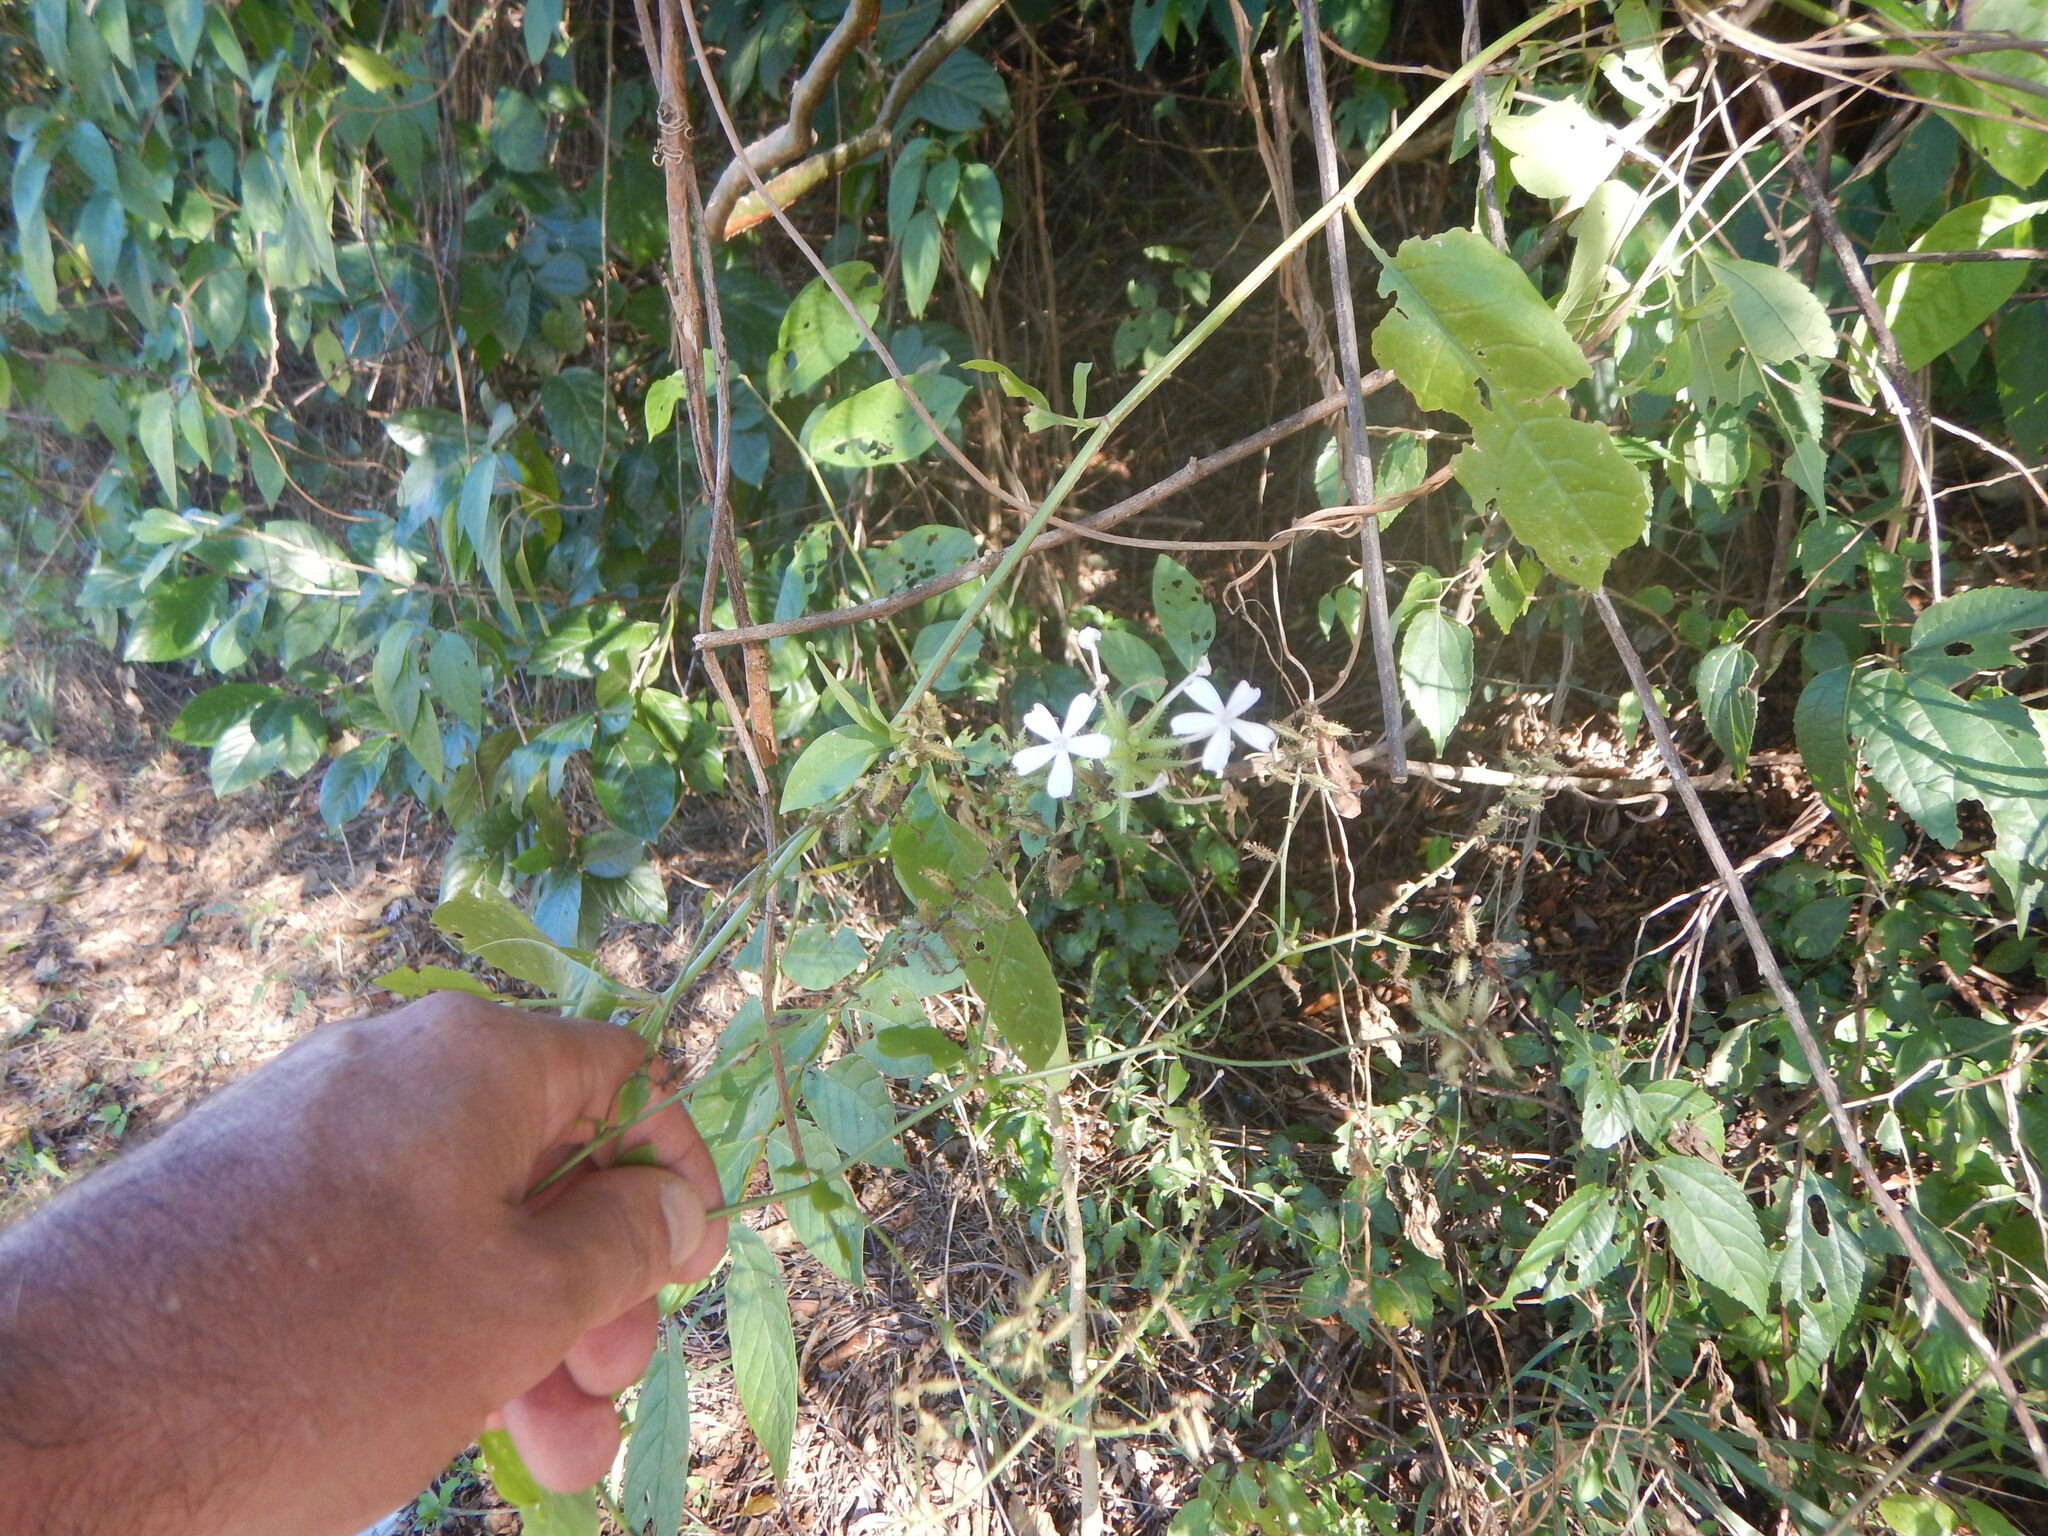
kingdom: Plantae
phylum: Tracheophyta
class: Magnoliopsida
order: Caryophyllales
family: Plumbaginaceae
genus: Plumbago
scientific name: Plumbago zeylanica
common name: Doctorbush
